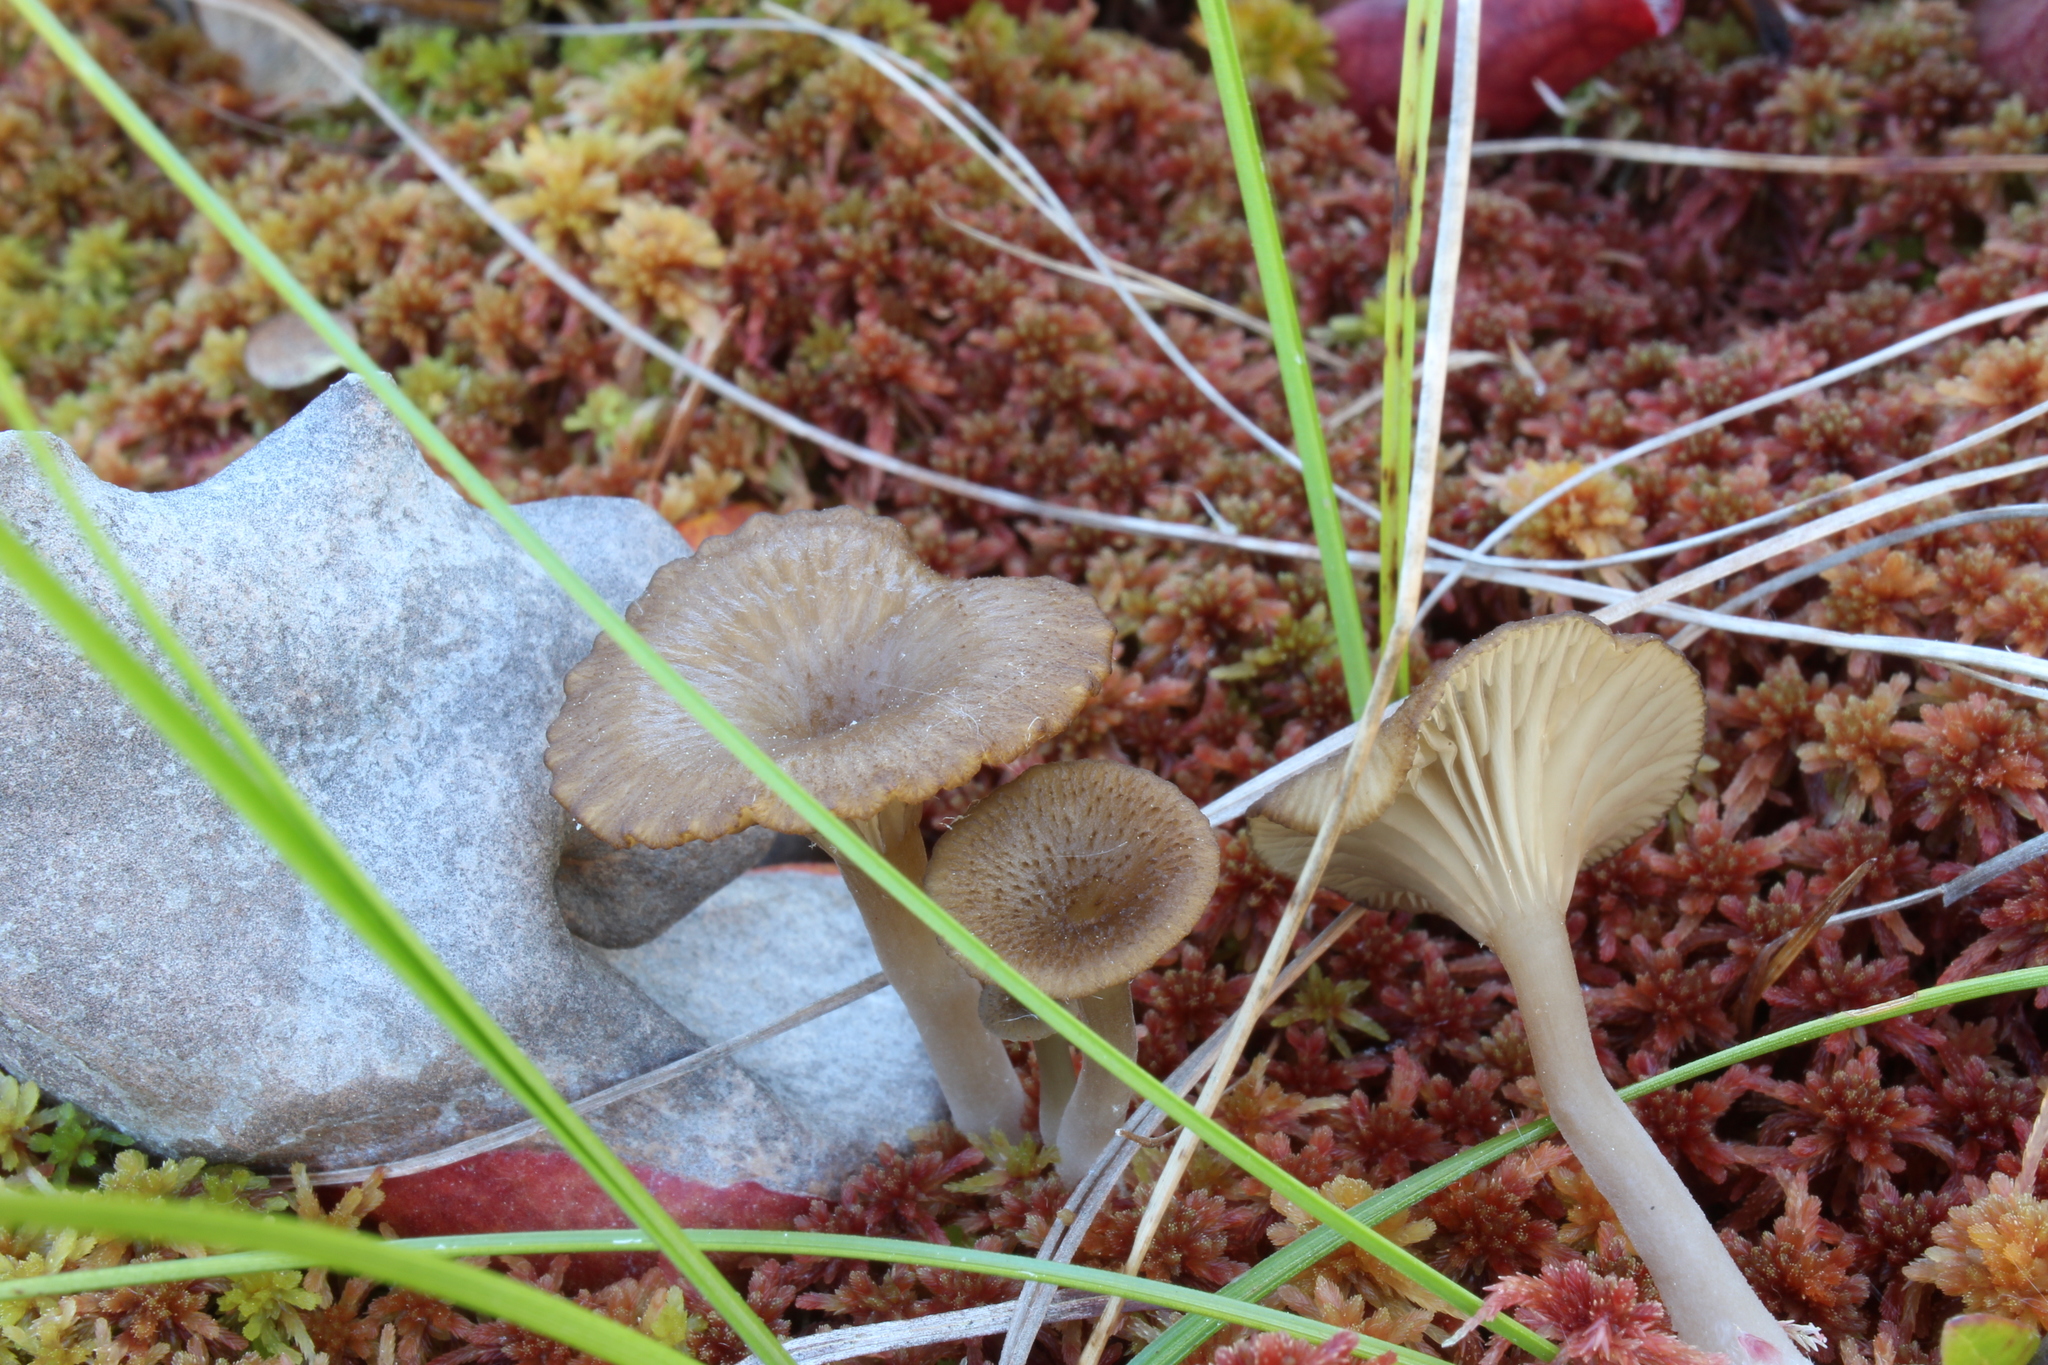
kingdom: Fungi
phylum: Basidiomycota
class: Agaricomycetes
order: Agaricales
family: Hygrophoraceae
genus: Lichenomphalia
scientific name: Lichenomphalia umbellifera
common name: Heath navel
